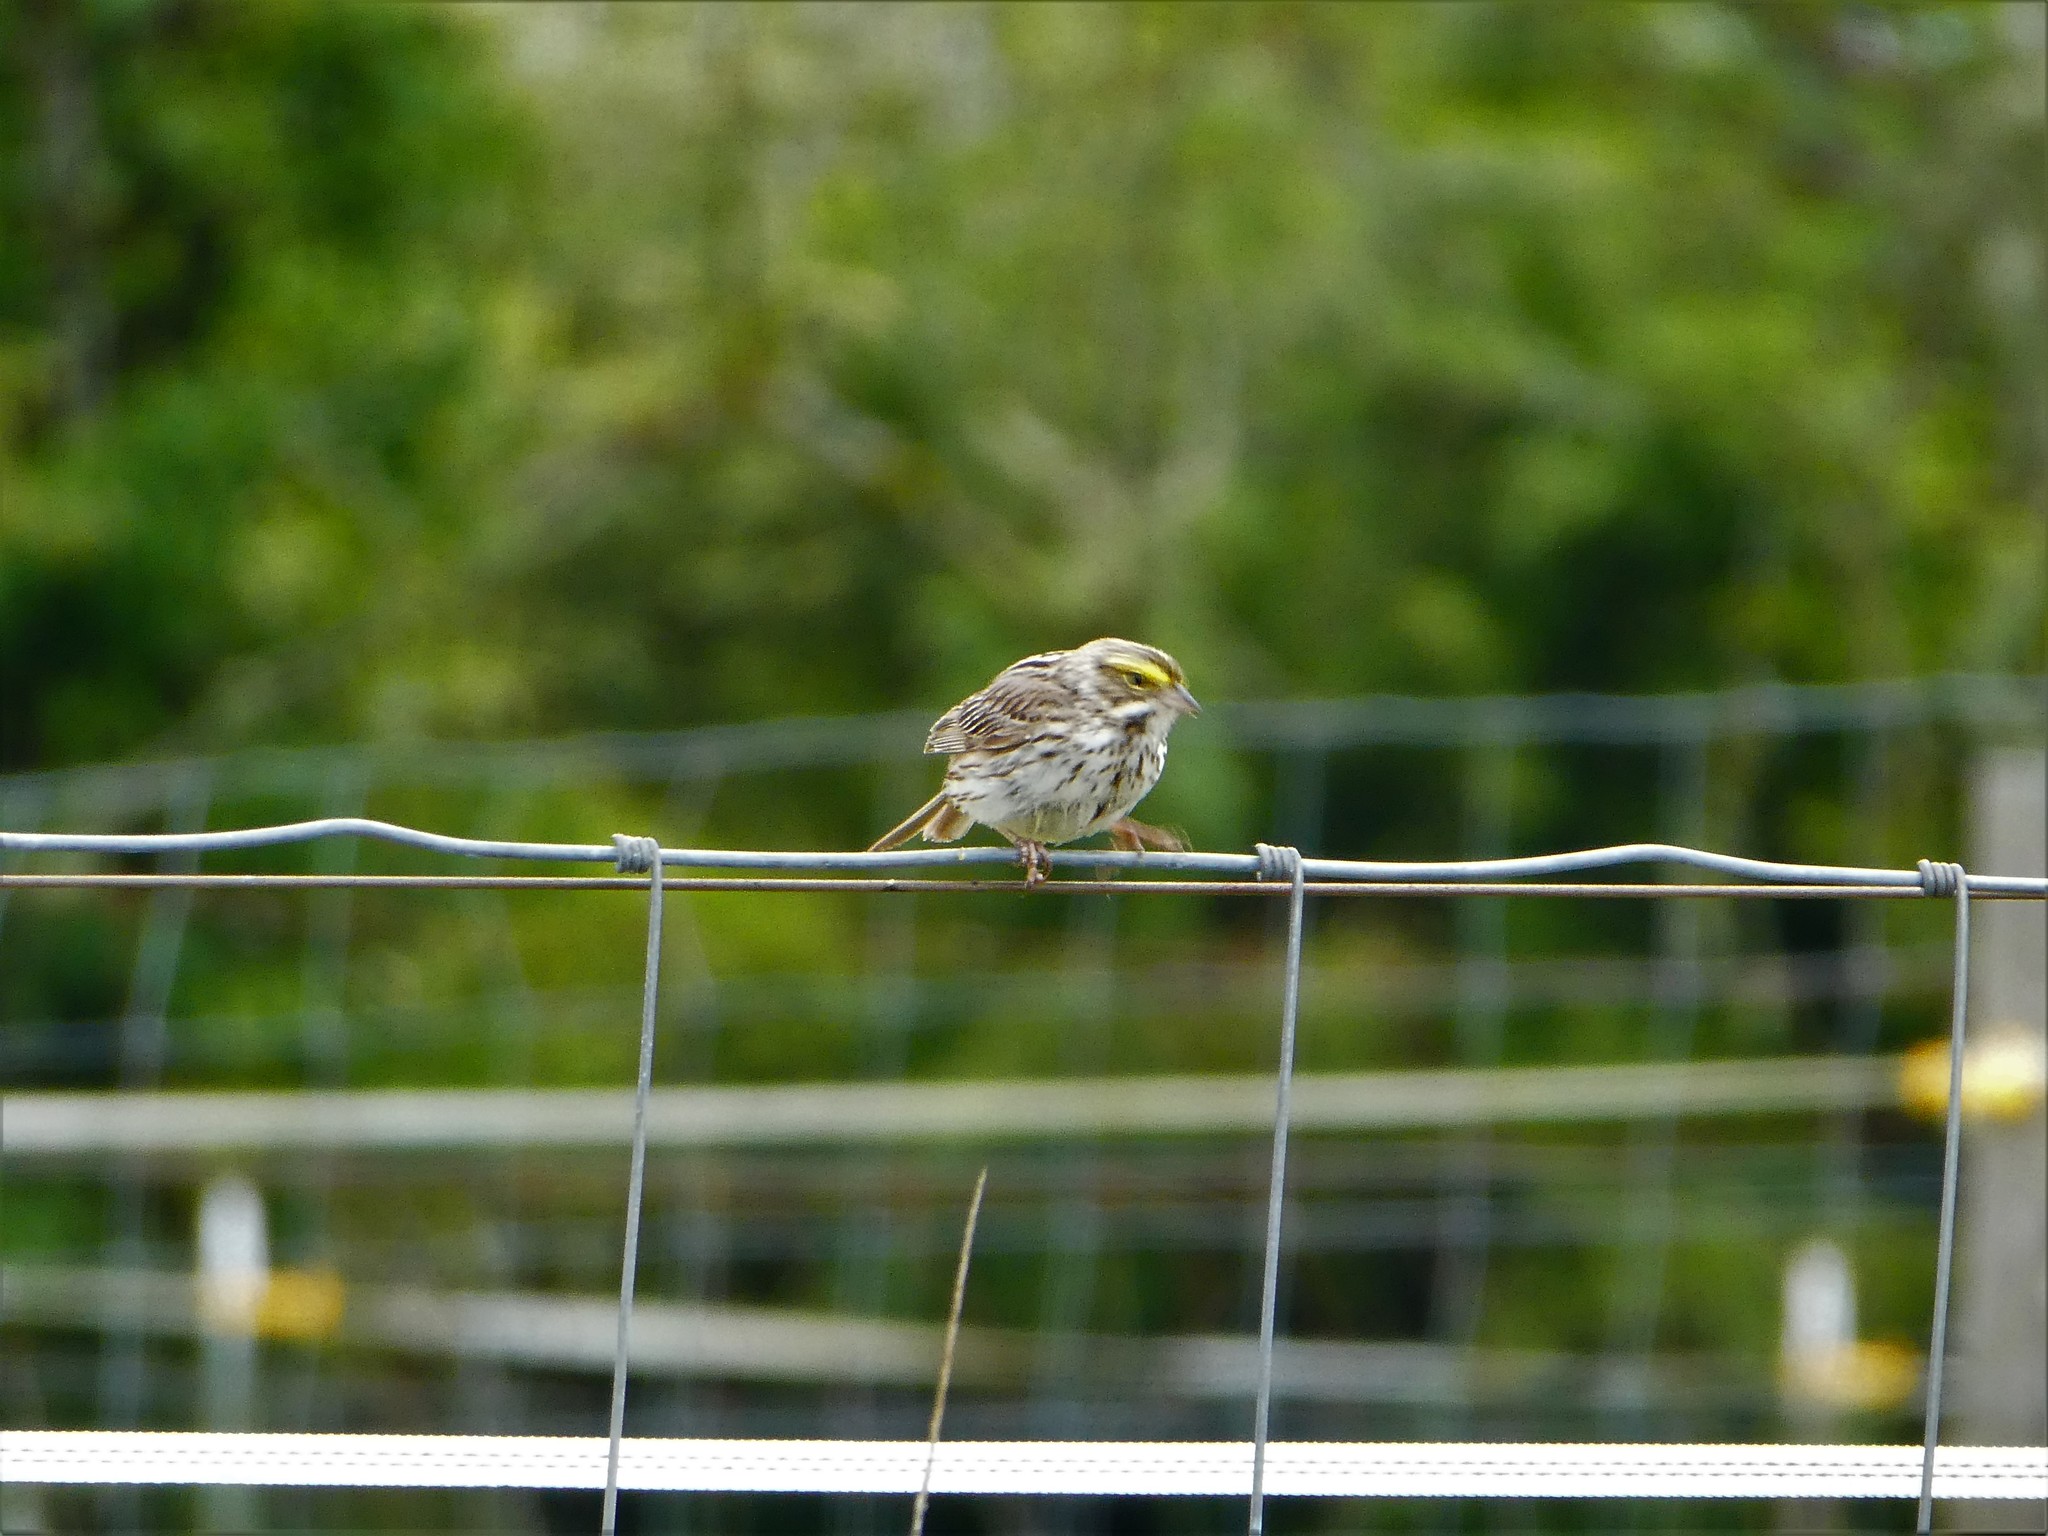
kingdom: Animalia
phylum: Chordata
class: Aves
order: Passeriformes
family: Passerellidae
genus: Passerculus
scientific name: Passerculus sandwichensis
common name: Savannah sparrow
